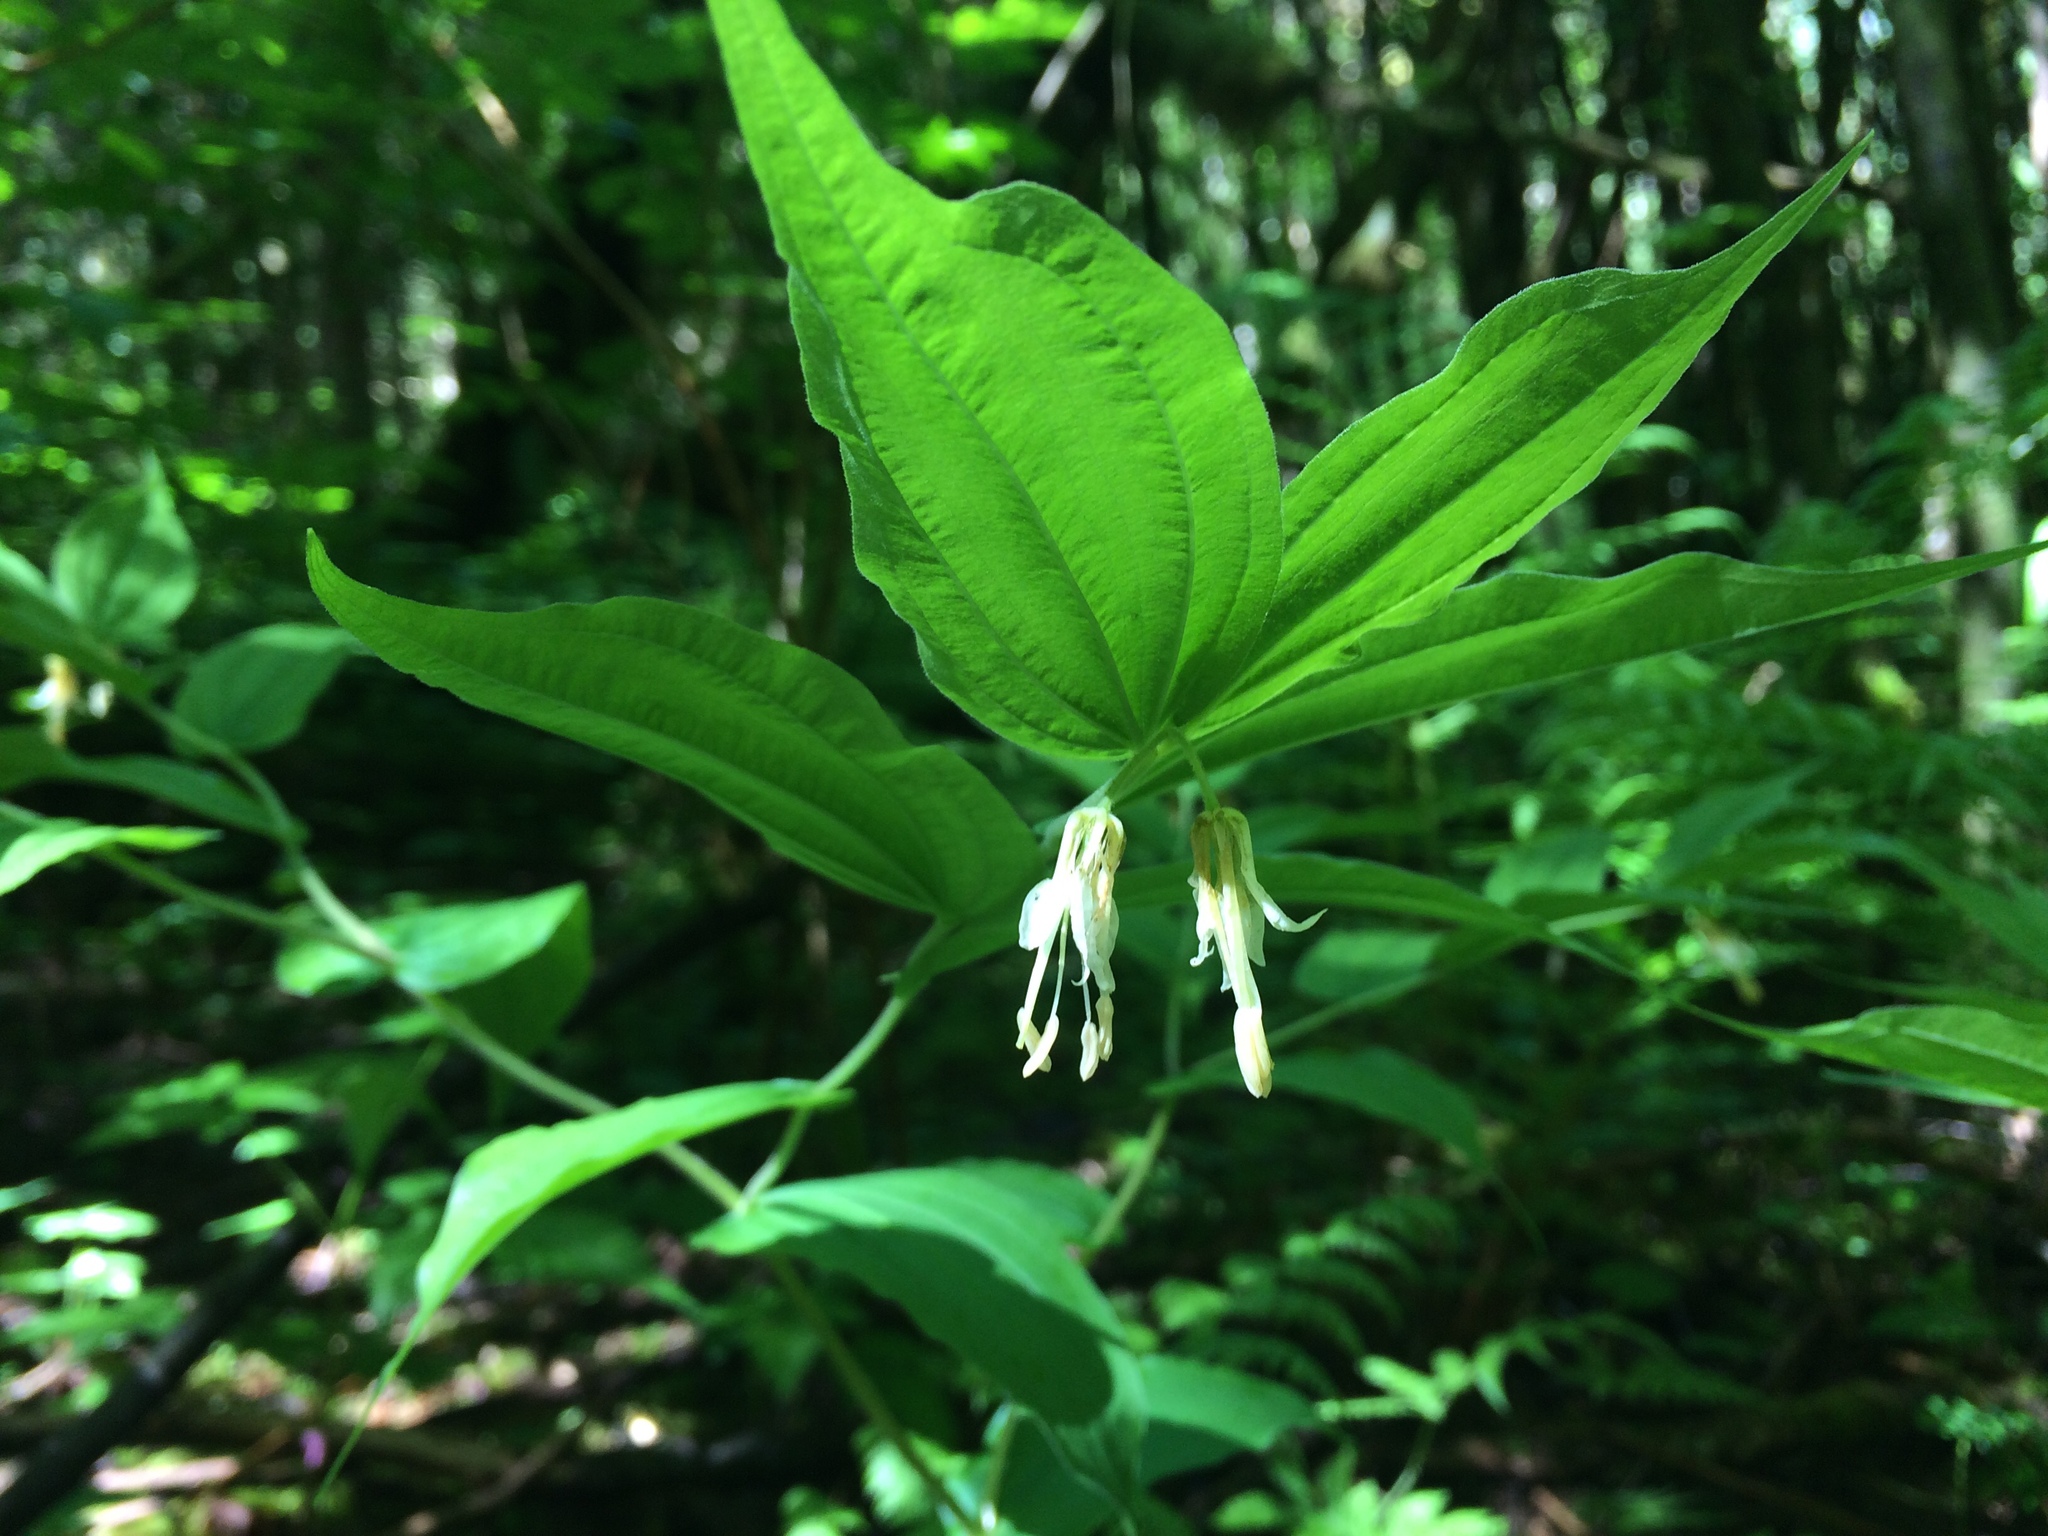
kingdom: Plantae
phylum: Tracheophyta
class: Liliopsida
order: Liliales
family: Liliaceae
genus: Prosartes
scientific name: Prosartes hookeri
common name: Fairy-bells
